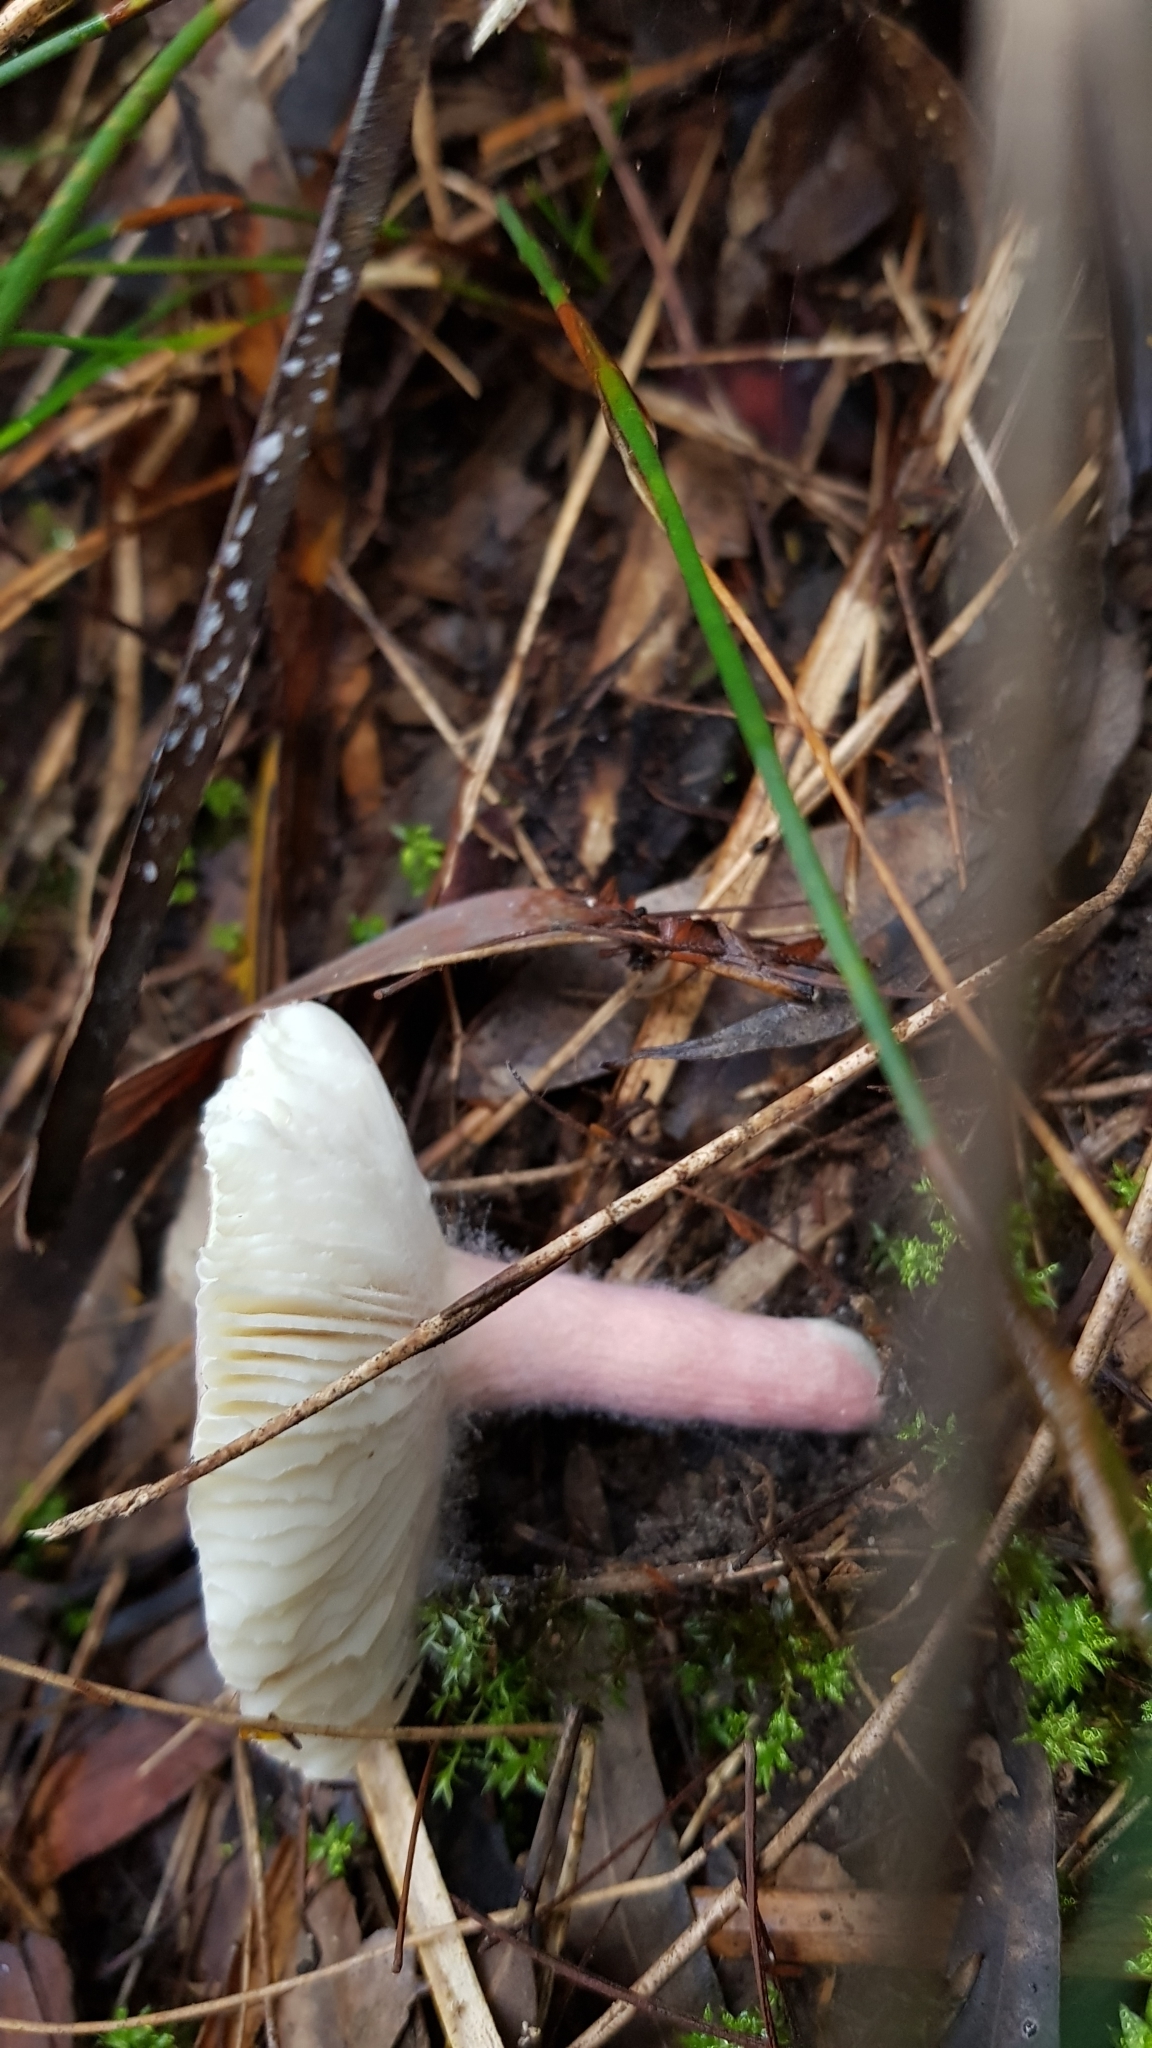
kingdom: Fungi
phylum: Basidiomycota
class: Agaricomycetes
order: Russulales
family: Russulaceae
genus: Russula
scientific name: Russula lenkunya
